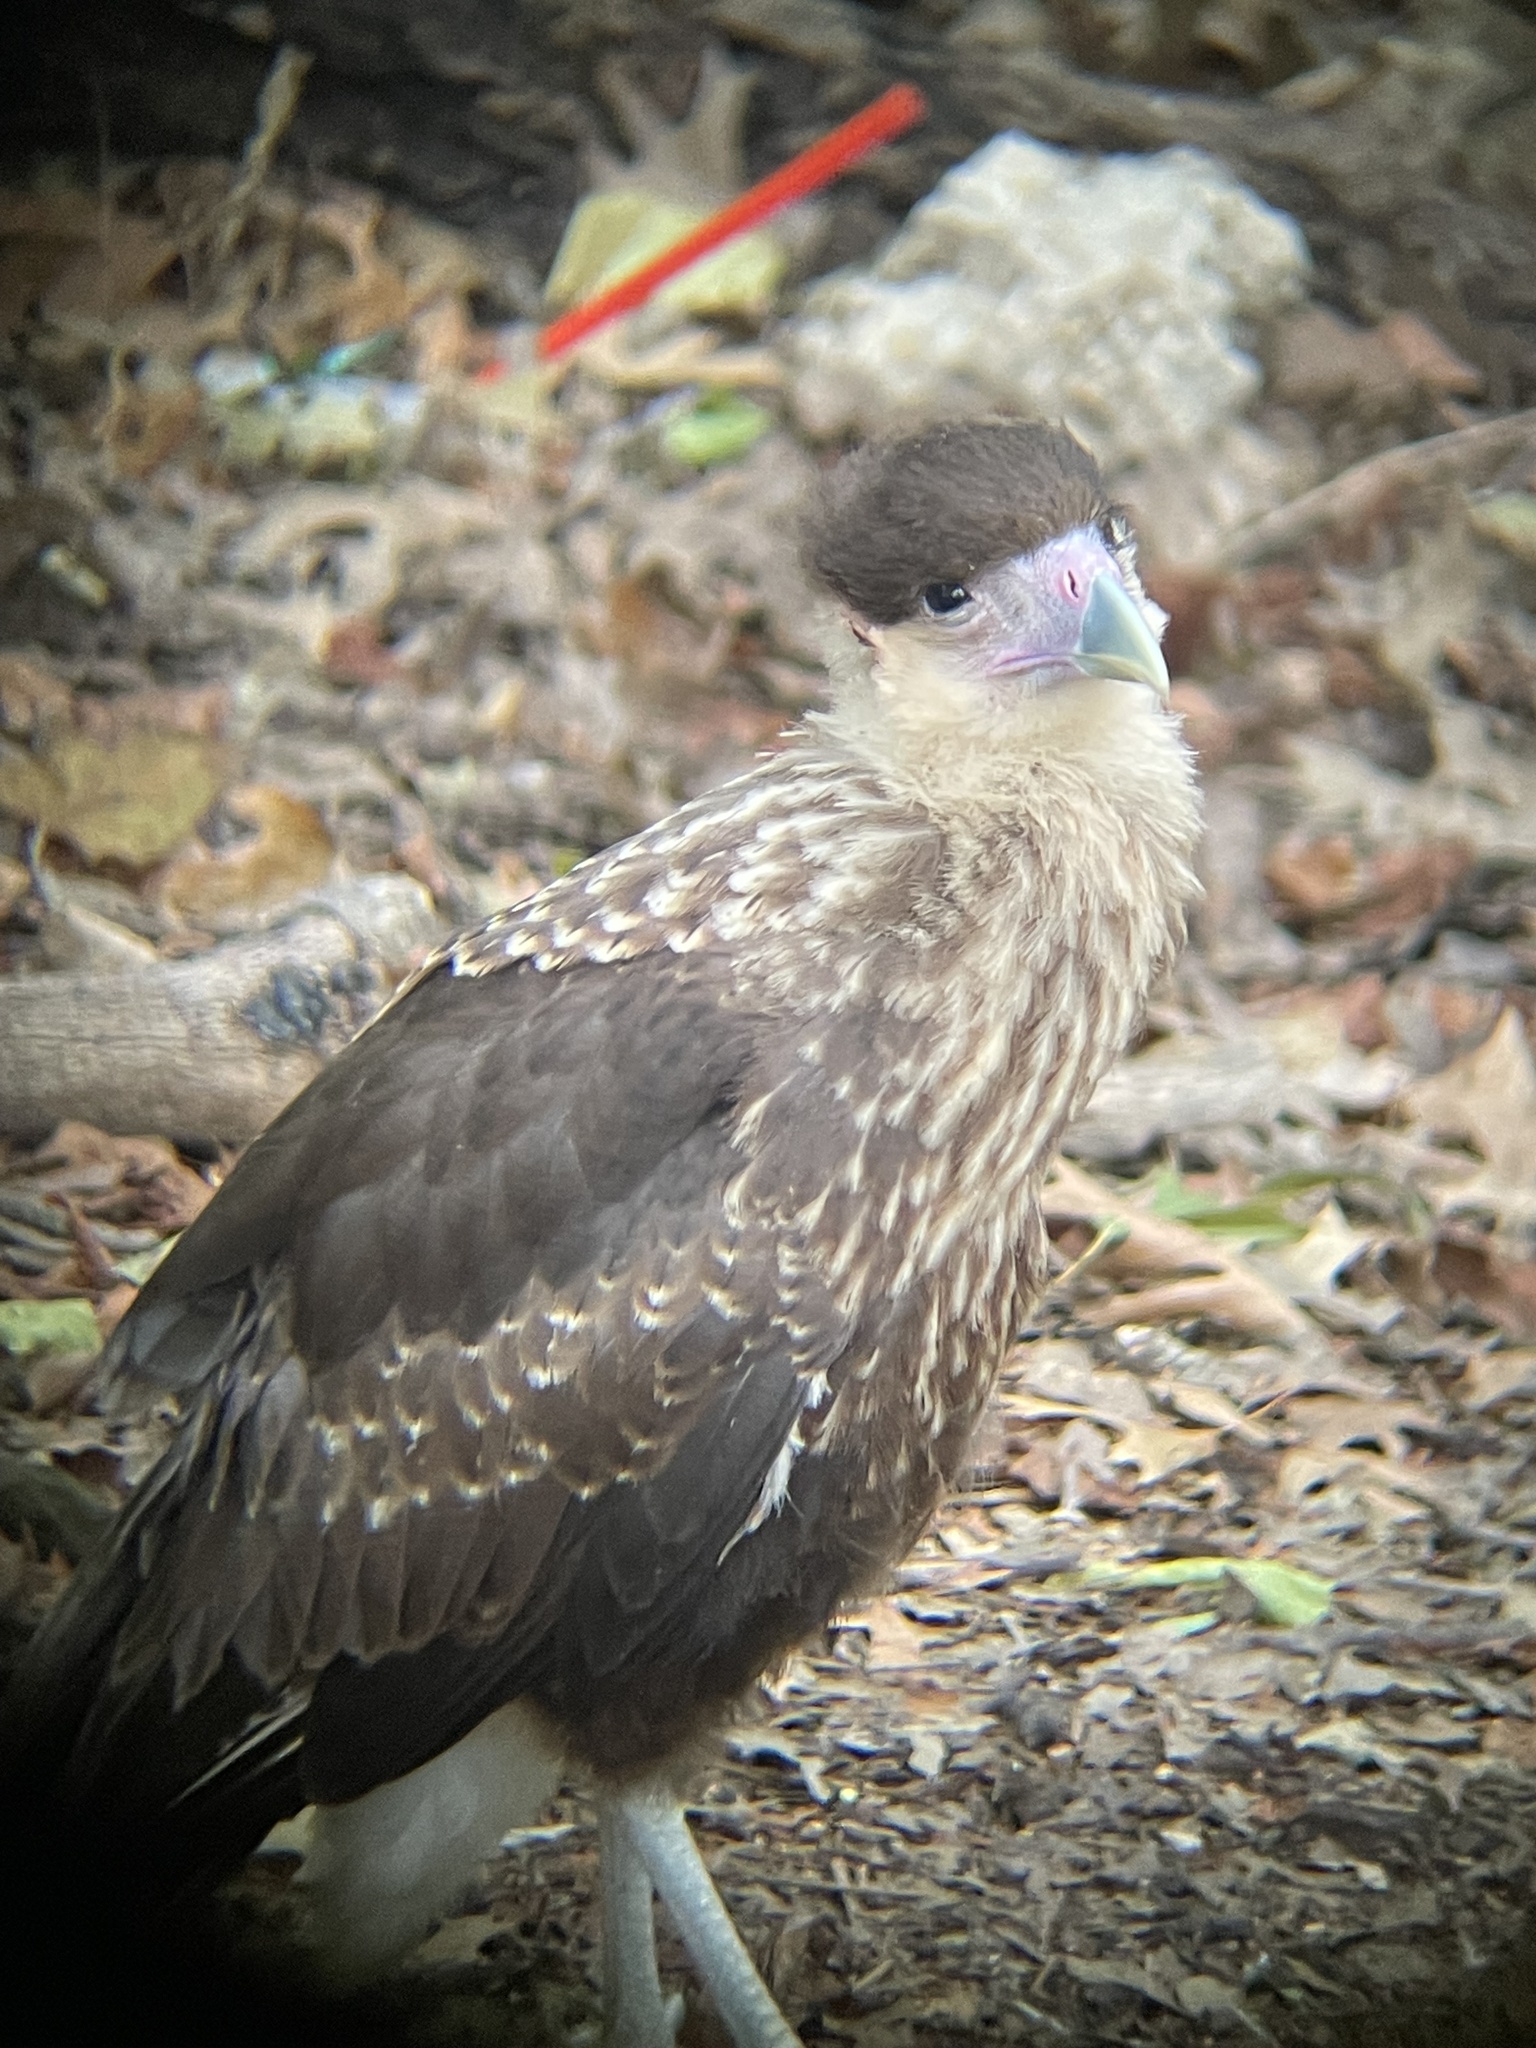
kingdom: Animalia
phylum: Chordata
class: Aves
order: Falconiformes
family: Falconidae
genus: Caracara
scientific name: Caracara plancus
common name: Southern caracara
